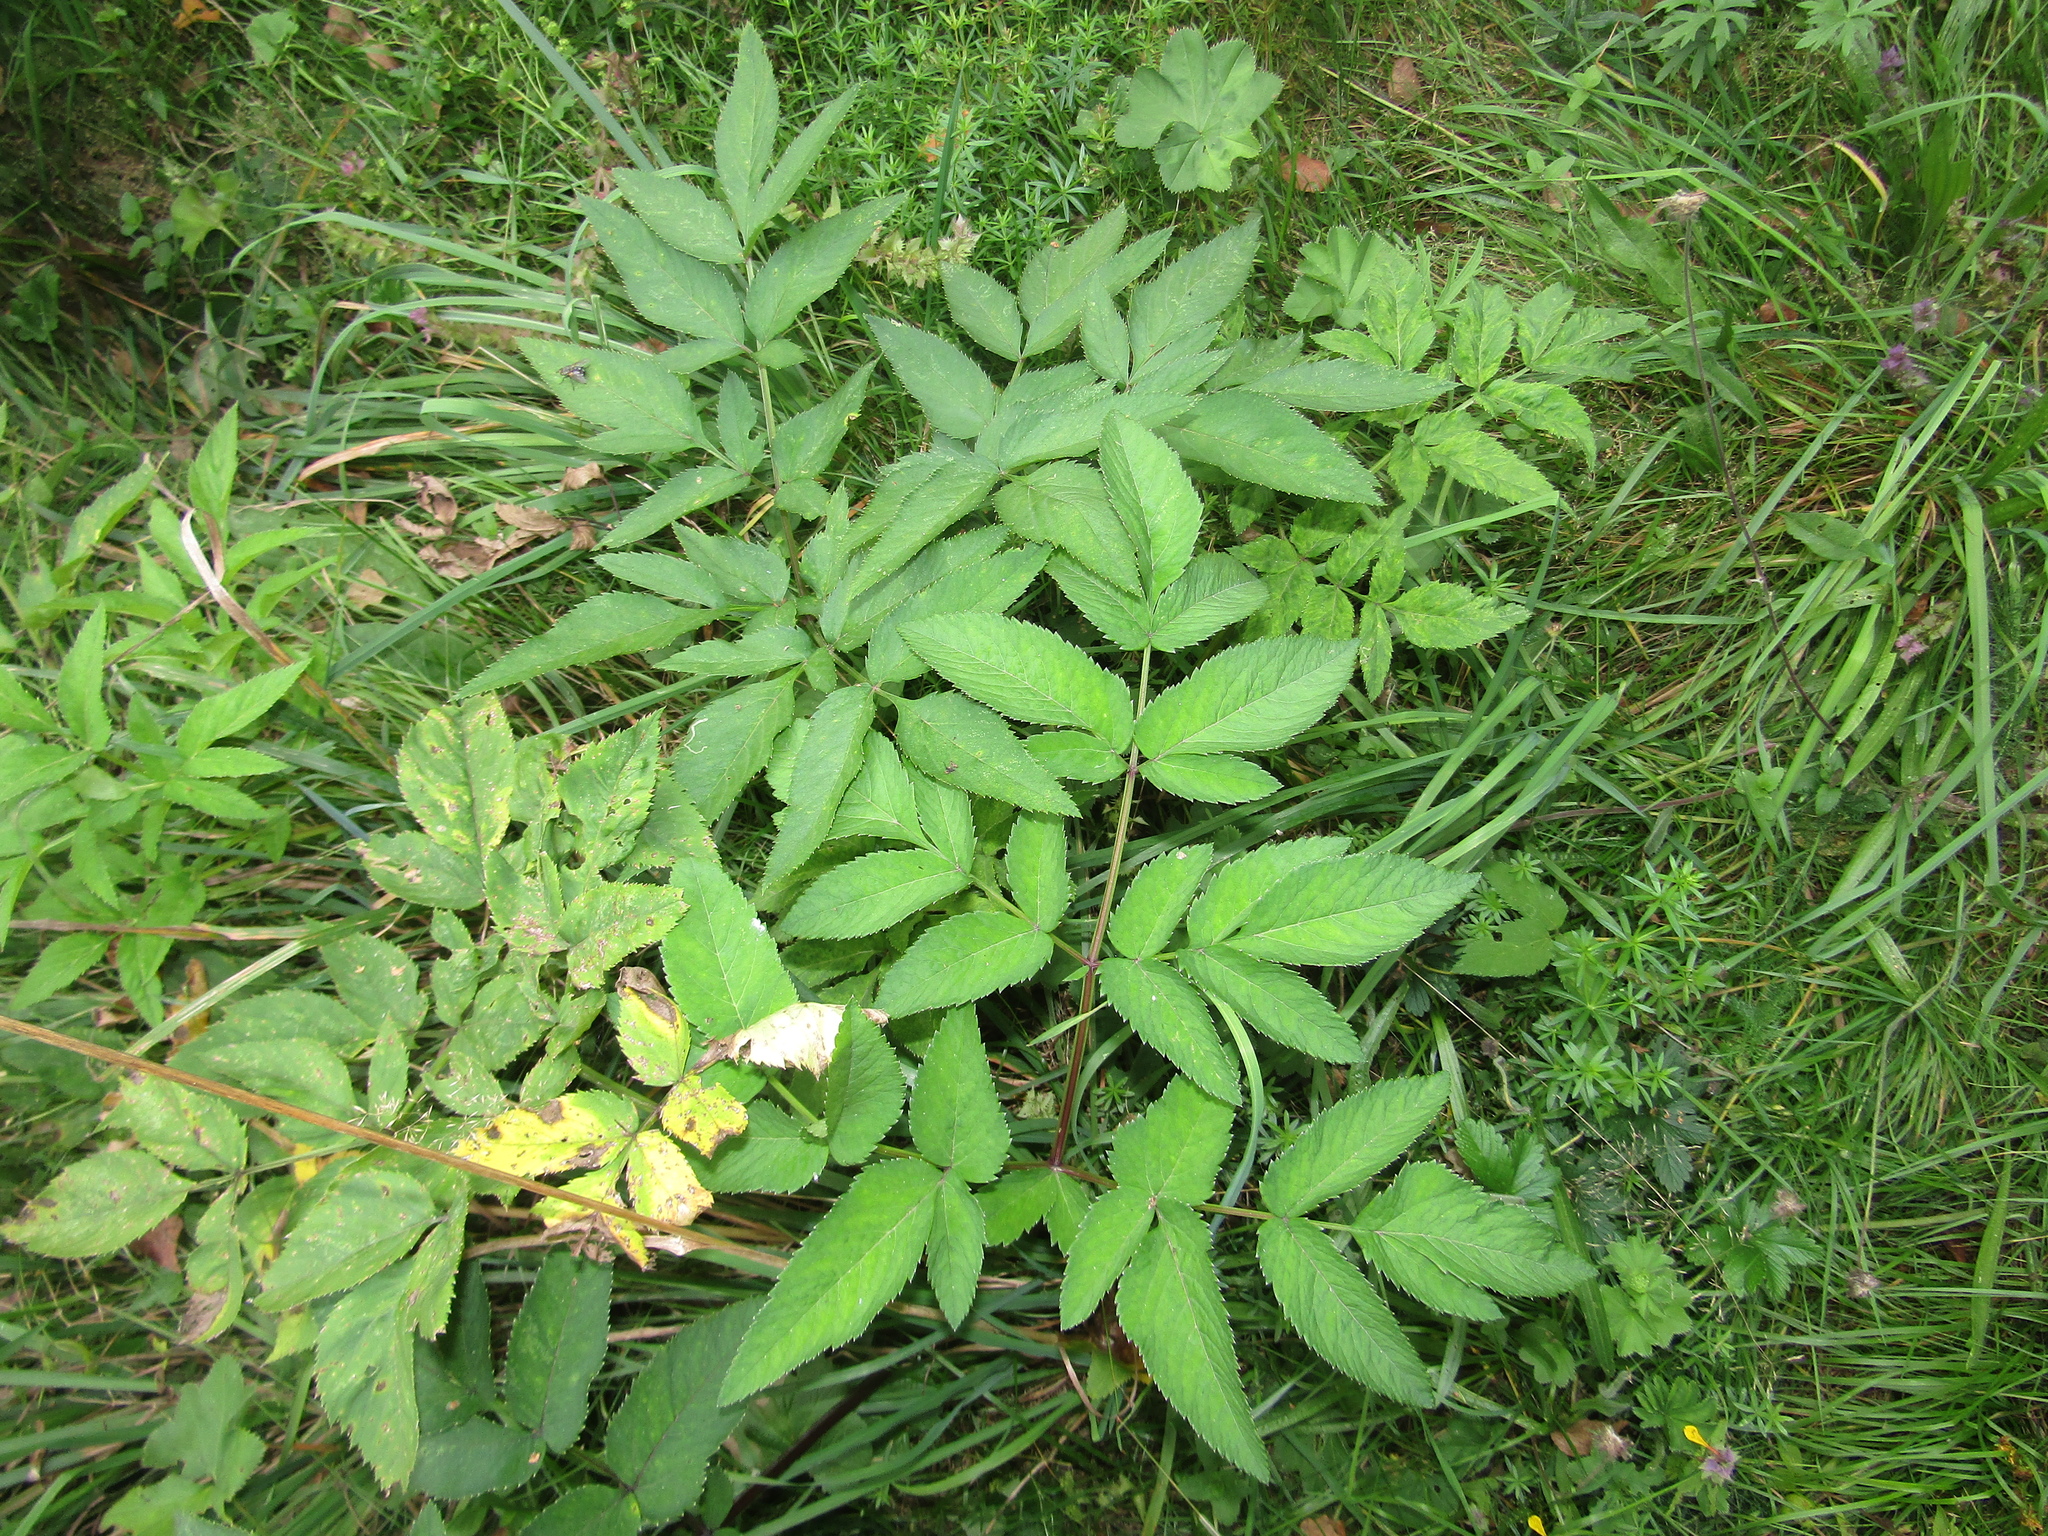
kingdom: Plantae
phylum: Tracheophyta
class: Magnoliopsida
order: Apiales
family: Apiaceae
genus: Angelica
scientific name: Angelica sylvestris
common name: Wild angelica
